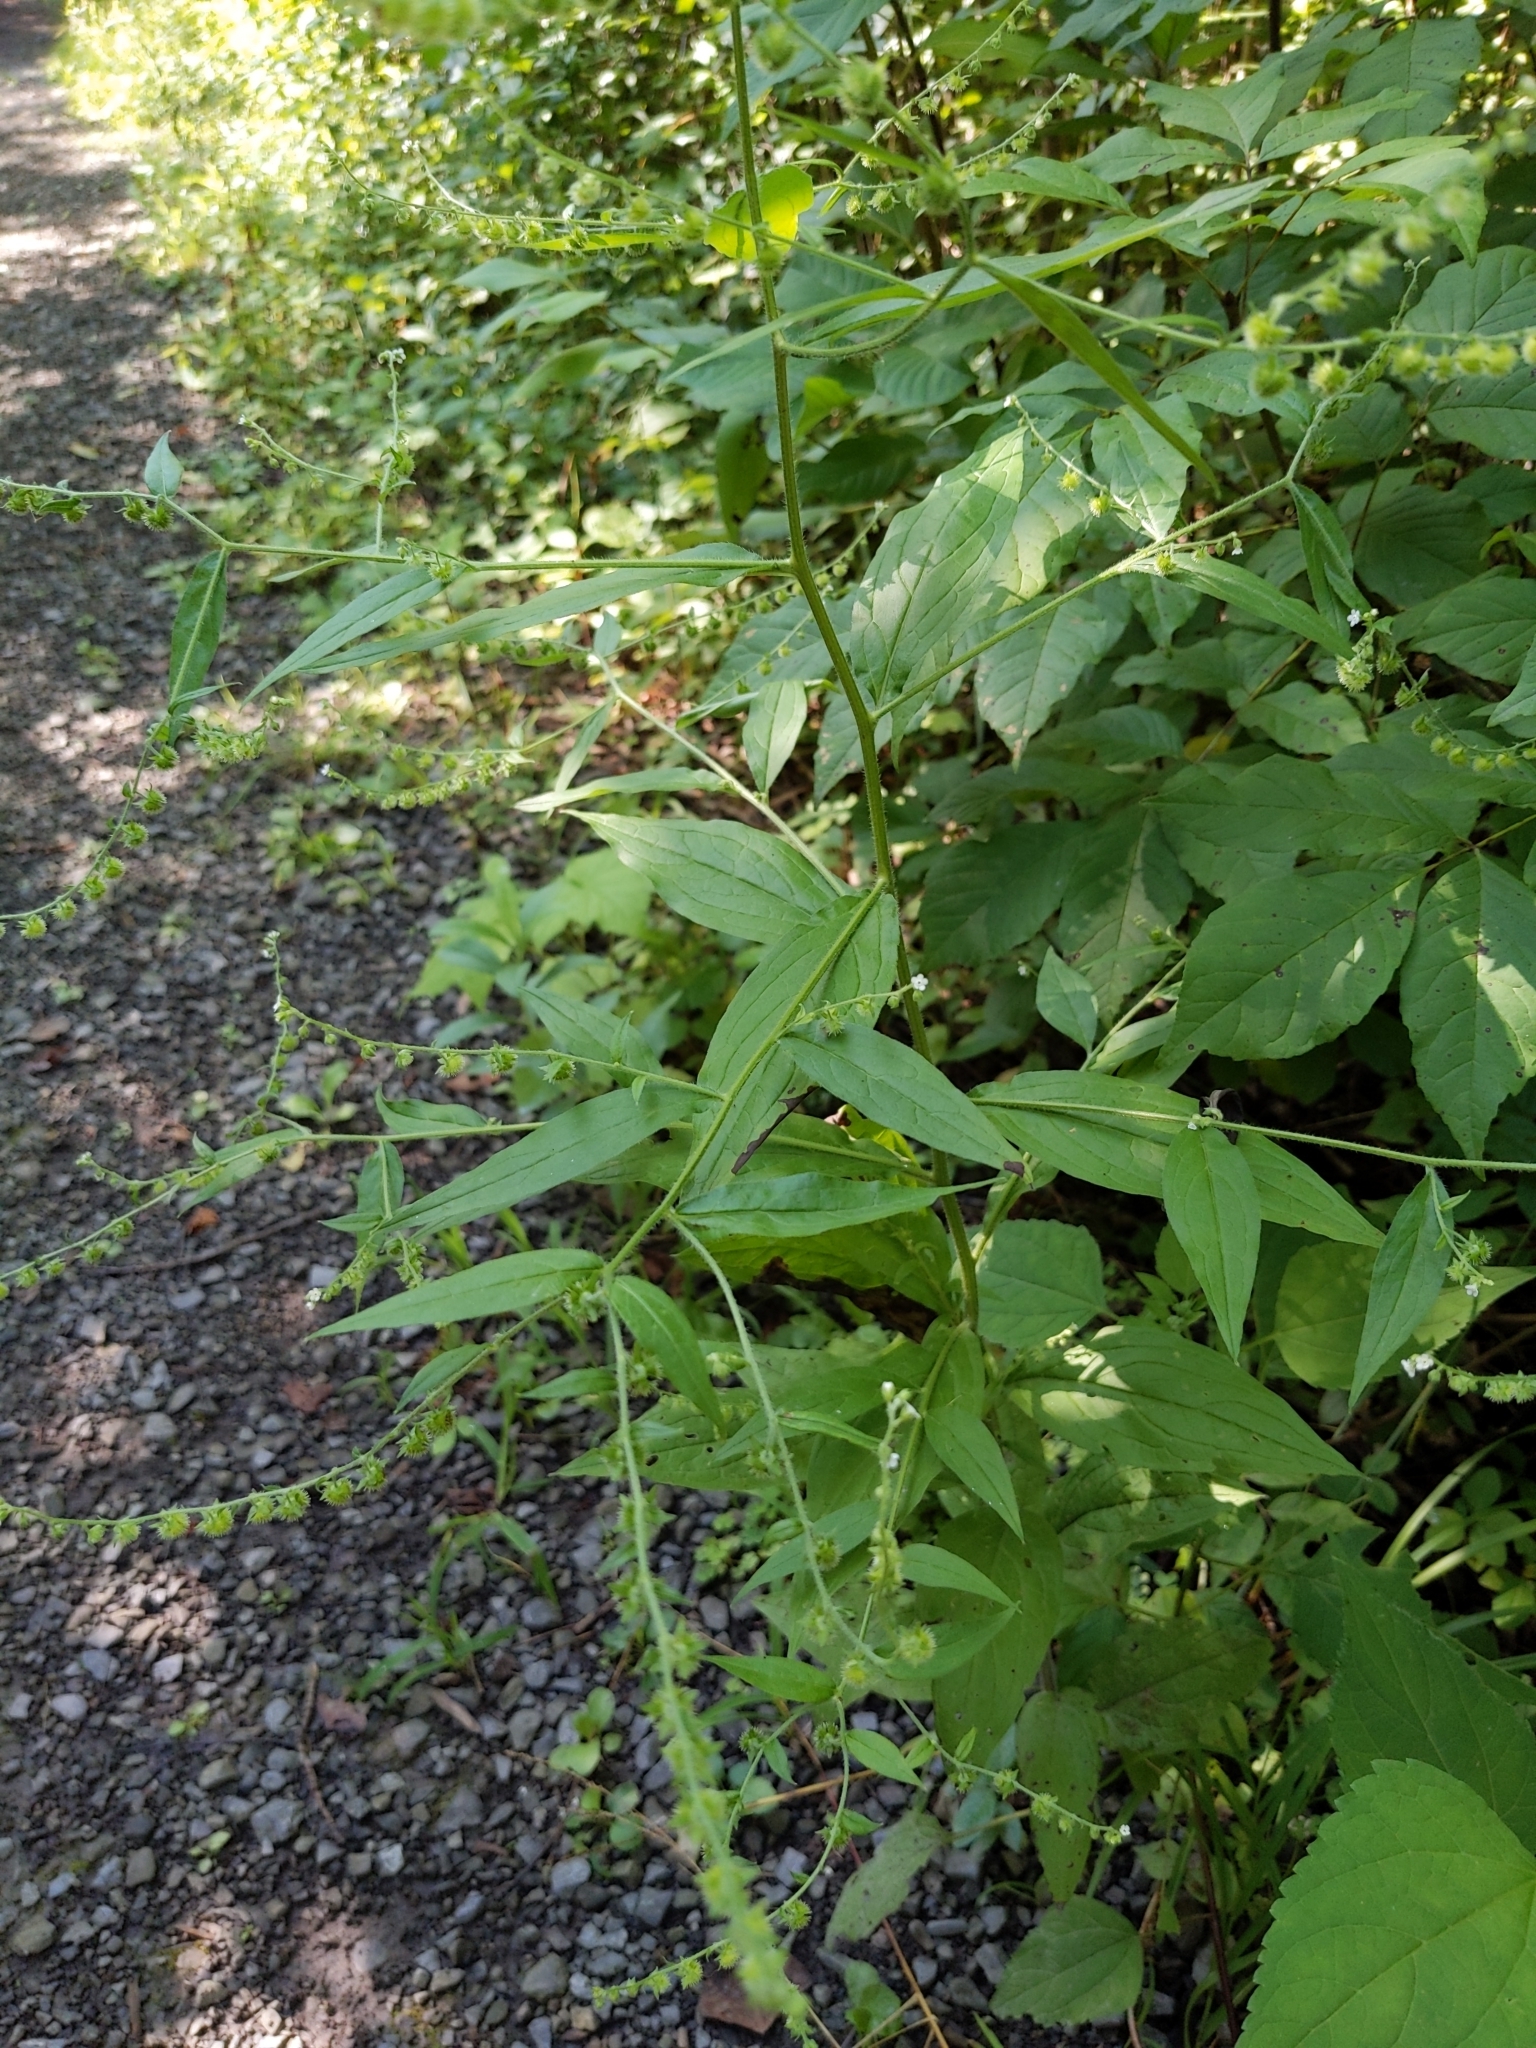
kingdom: Plantae
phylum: Tracheophyta
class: Magnoliopsida
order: Boraginales
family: Boraginaceae
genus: Hackelia
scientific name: Hackelia virginiana
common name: Beggar's-lice
